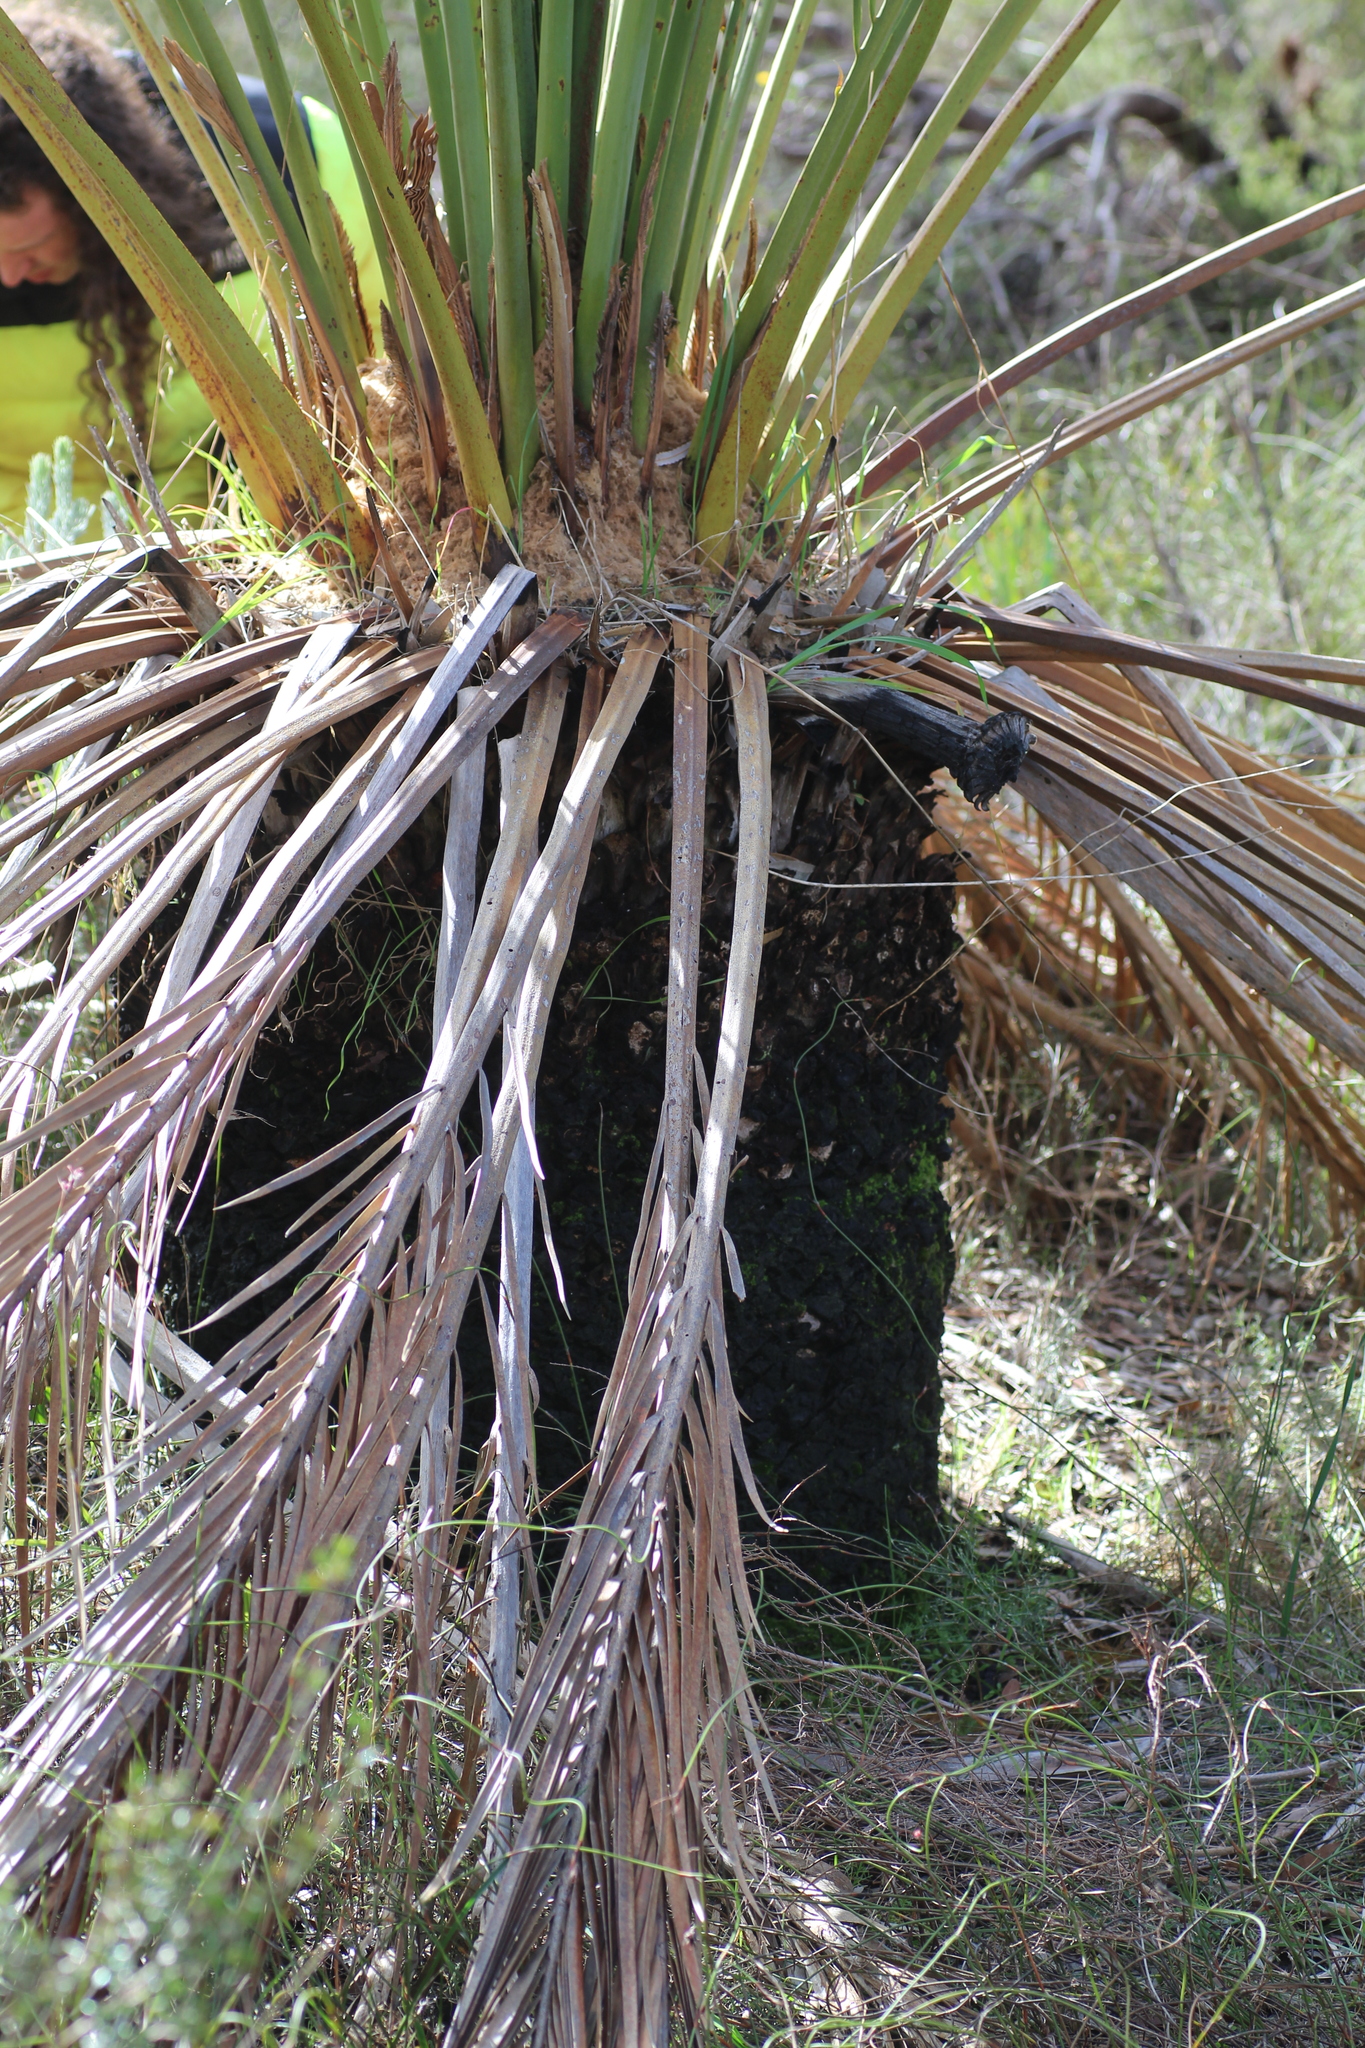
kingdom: Plantae
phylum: Tracheophyta
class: Cycadopsida
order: Cycadales
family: Zamiaceae
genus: Macrozamia
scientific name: Macrozamia fraseri
